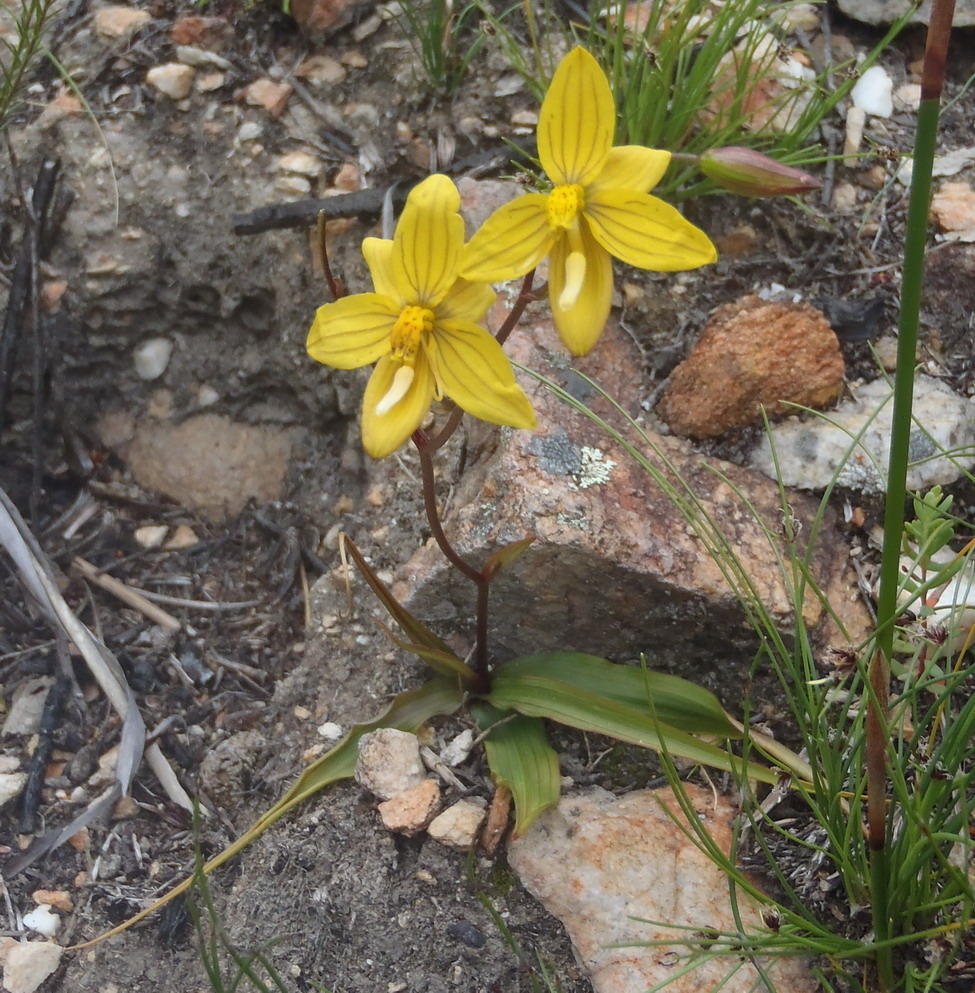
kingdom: Plantae
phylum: Tracheophyta
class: Liliopsida
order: Asparagales
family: Tecophilaeaceae
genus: Cyanella
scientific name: Cyanella lutea
